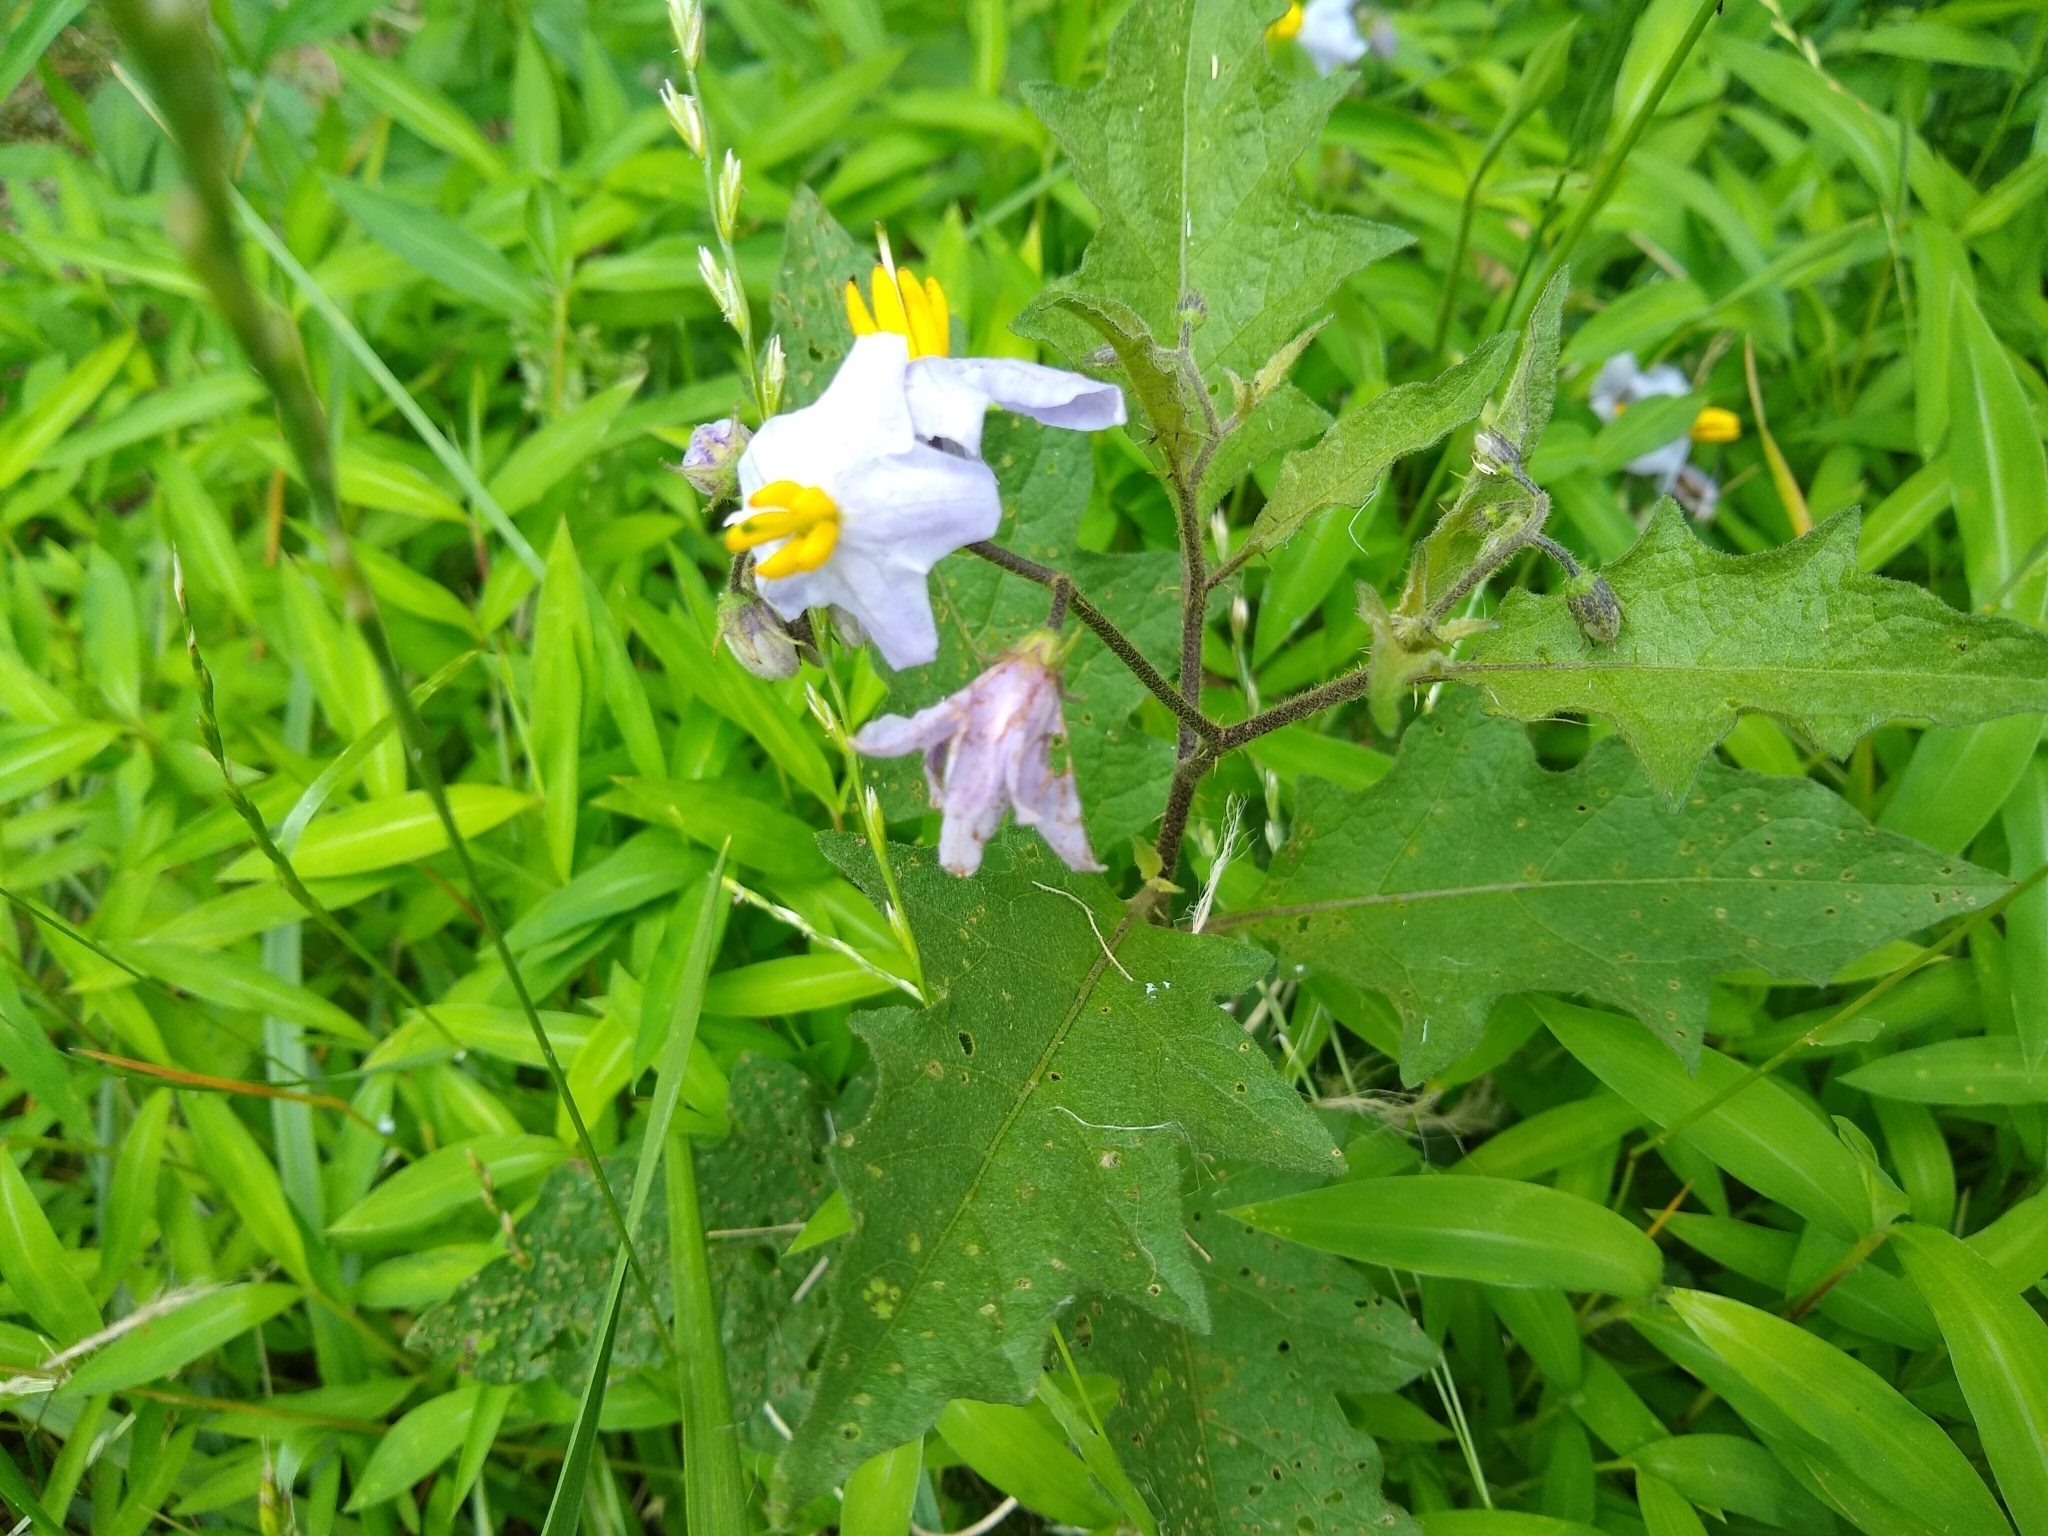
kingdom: Plantae
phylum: Tracheophyta
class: Magnoliopsida
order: Solanales
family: Solanaceae
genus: Solanum
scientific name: Solanum carolinense
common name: Horse-nettle
